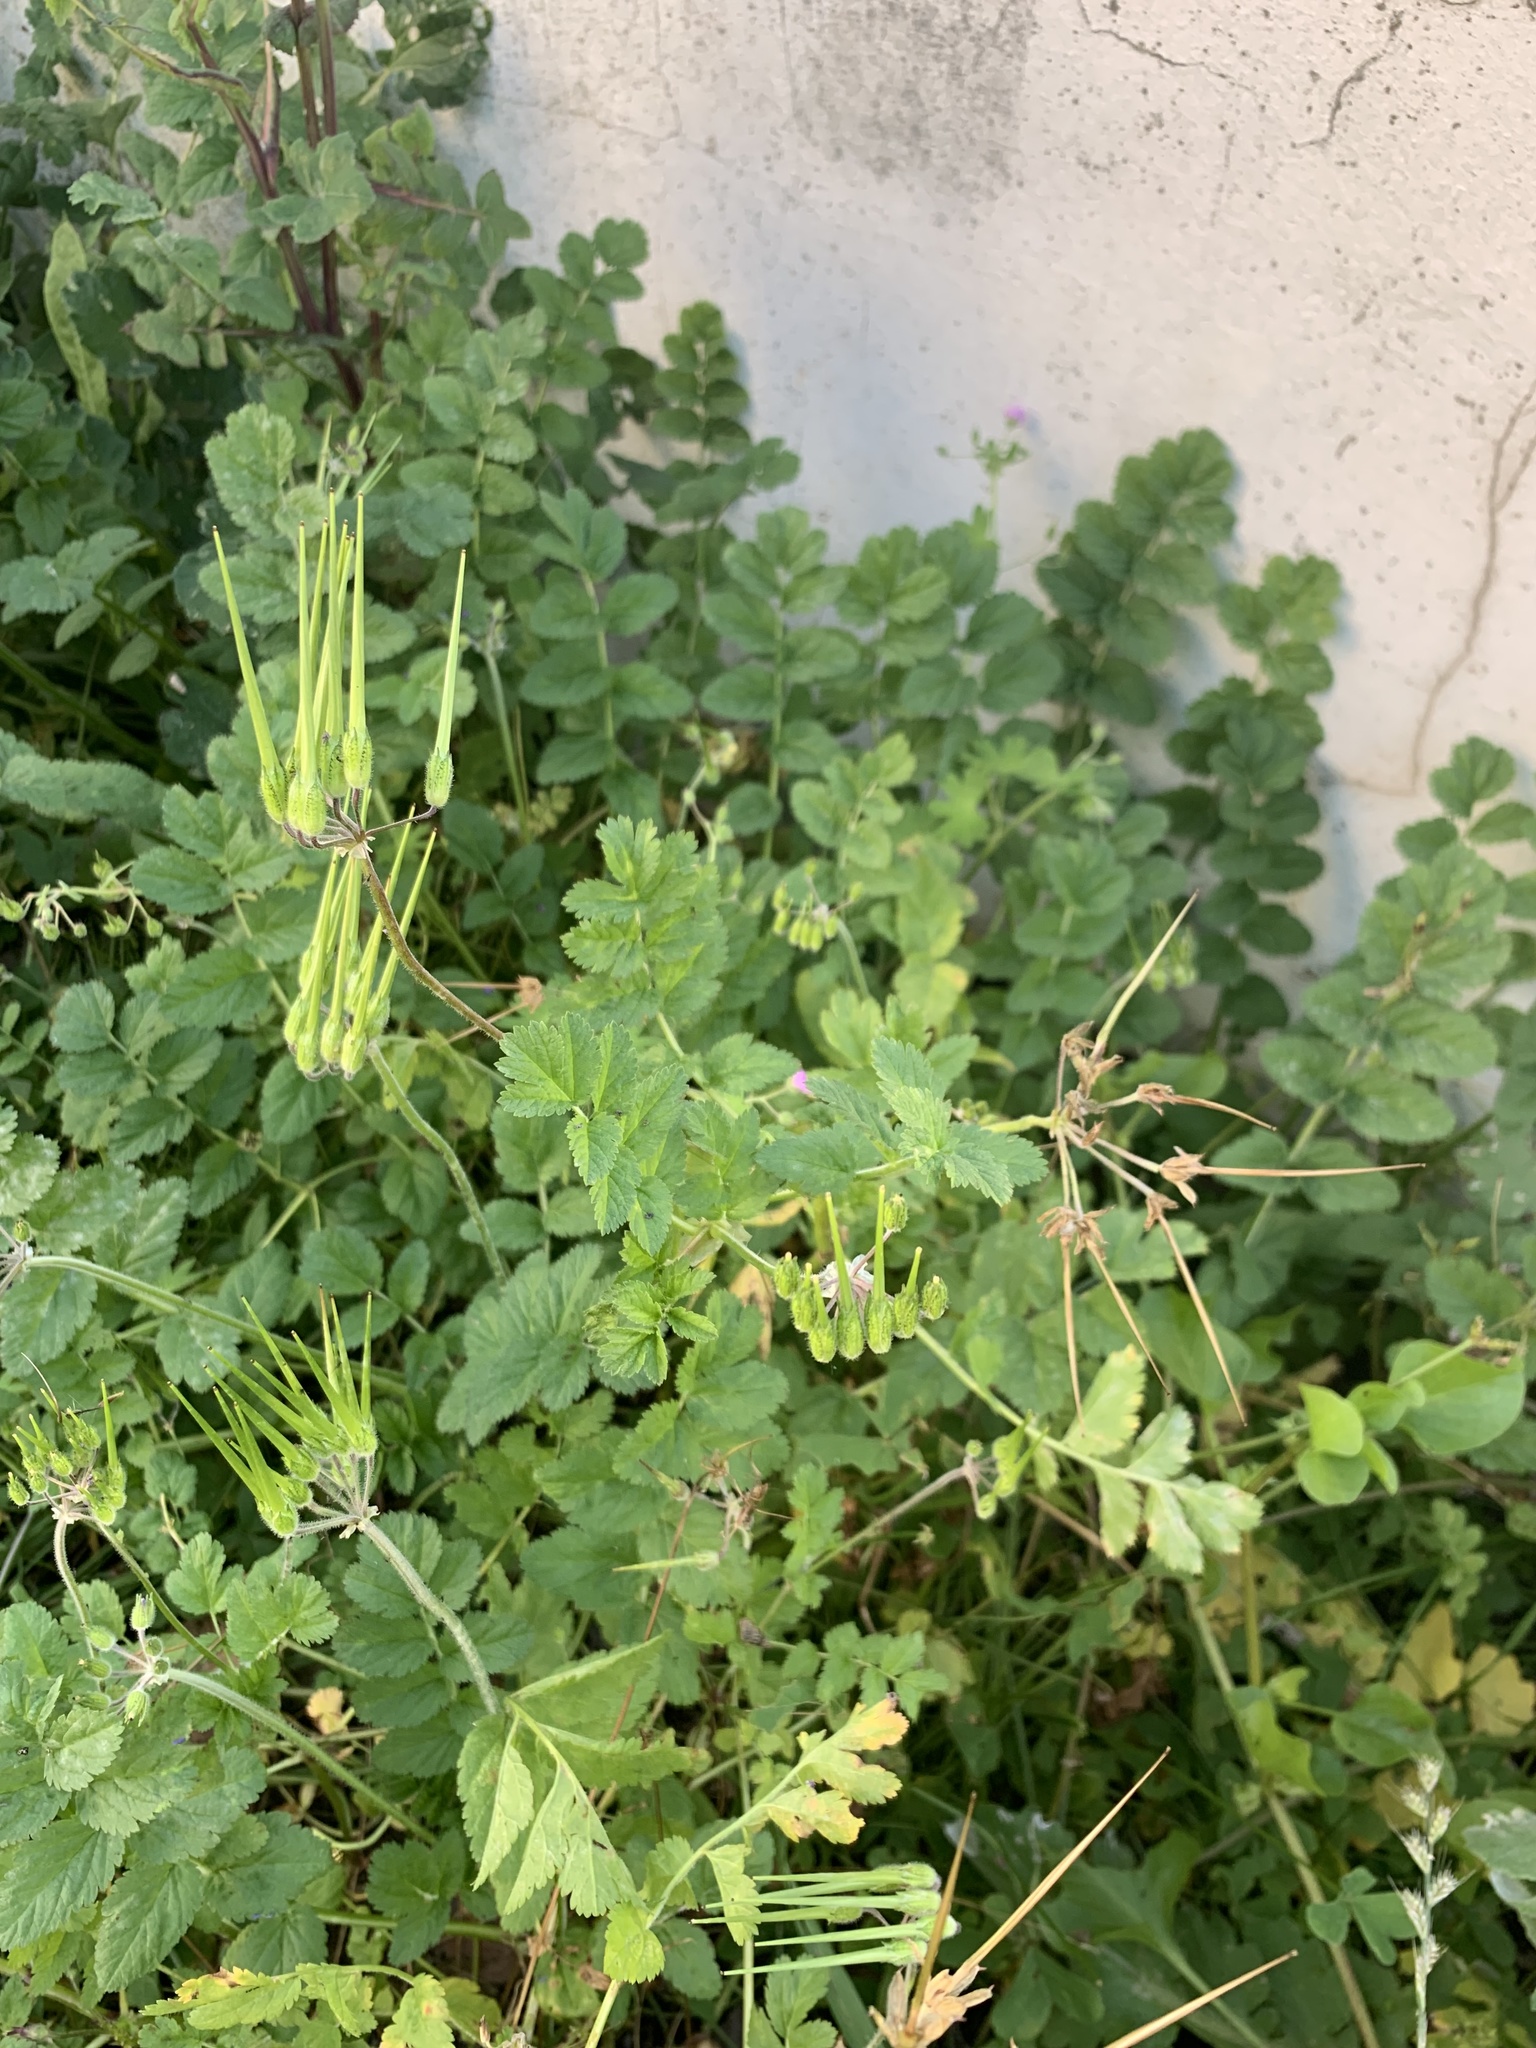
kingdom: Plantae
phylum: Tracheophyta
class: Magnoliopsida
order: Geraniales
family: Geraniaceae
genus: Erodium
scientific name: Erodium moschatum
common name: Musk stork's-bill
